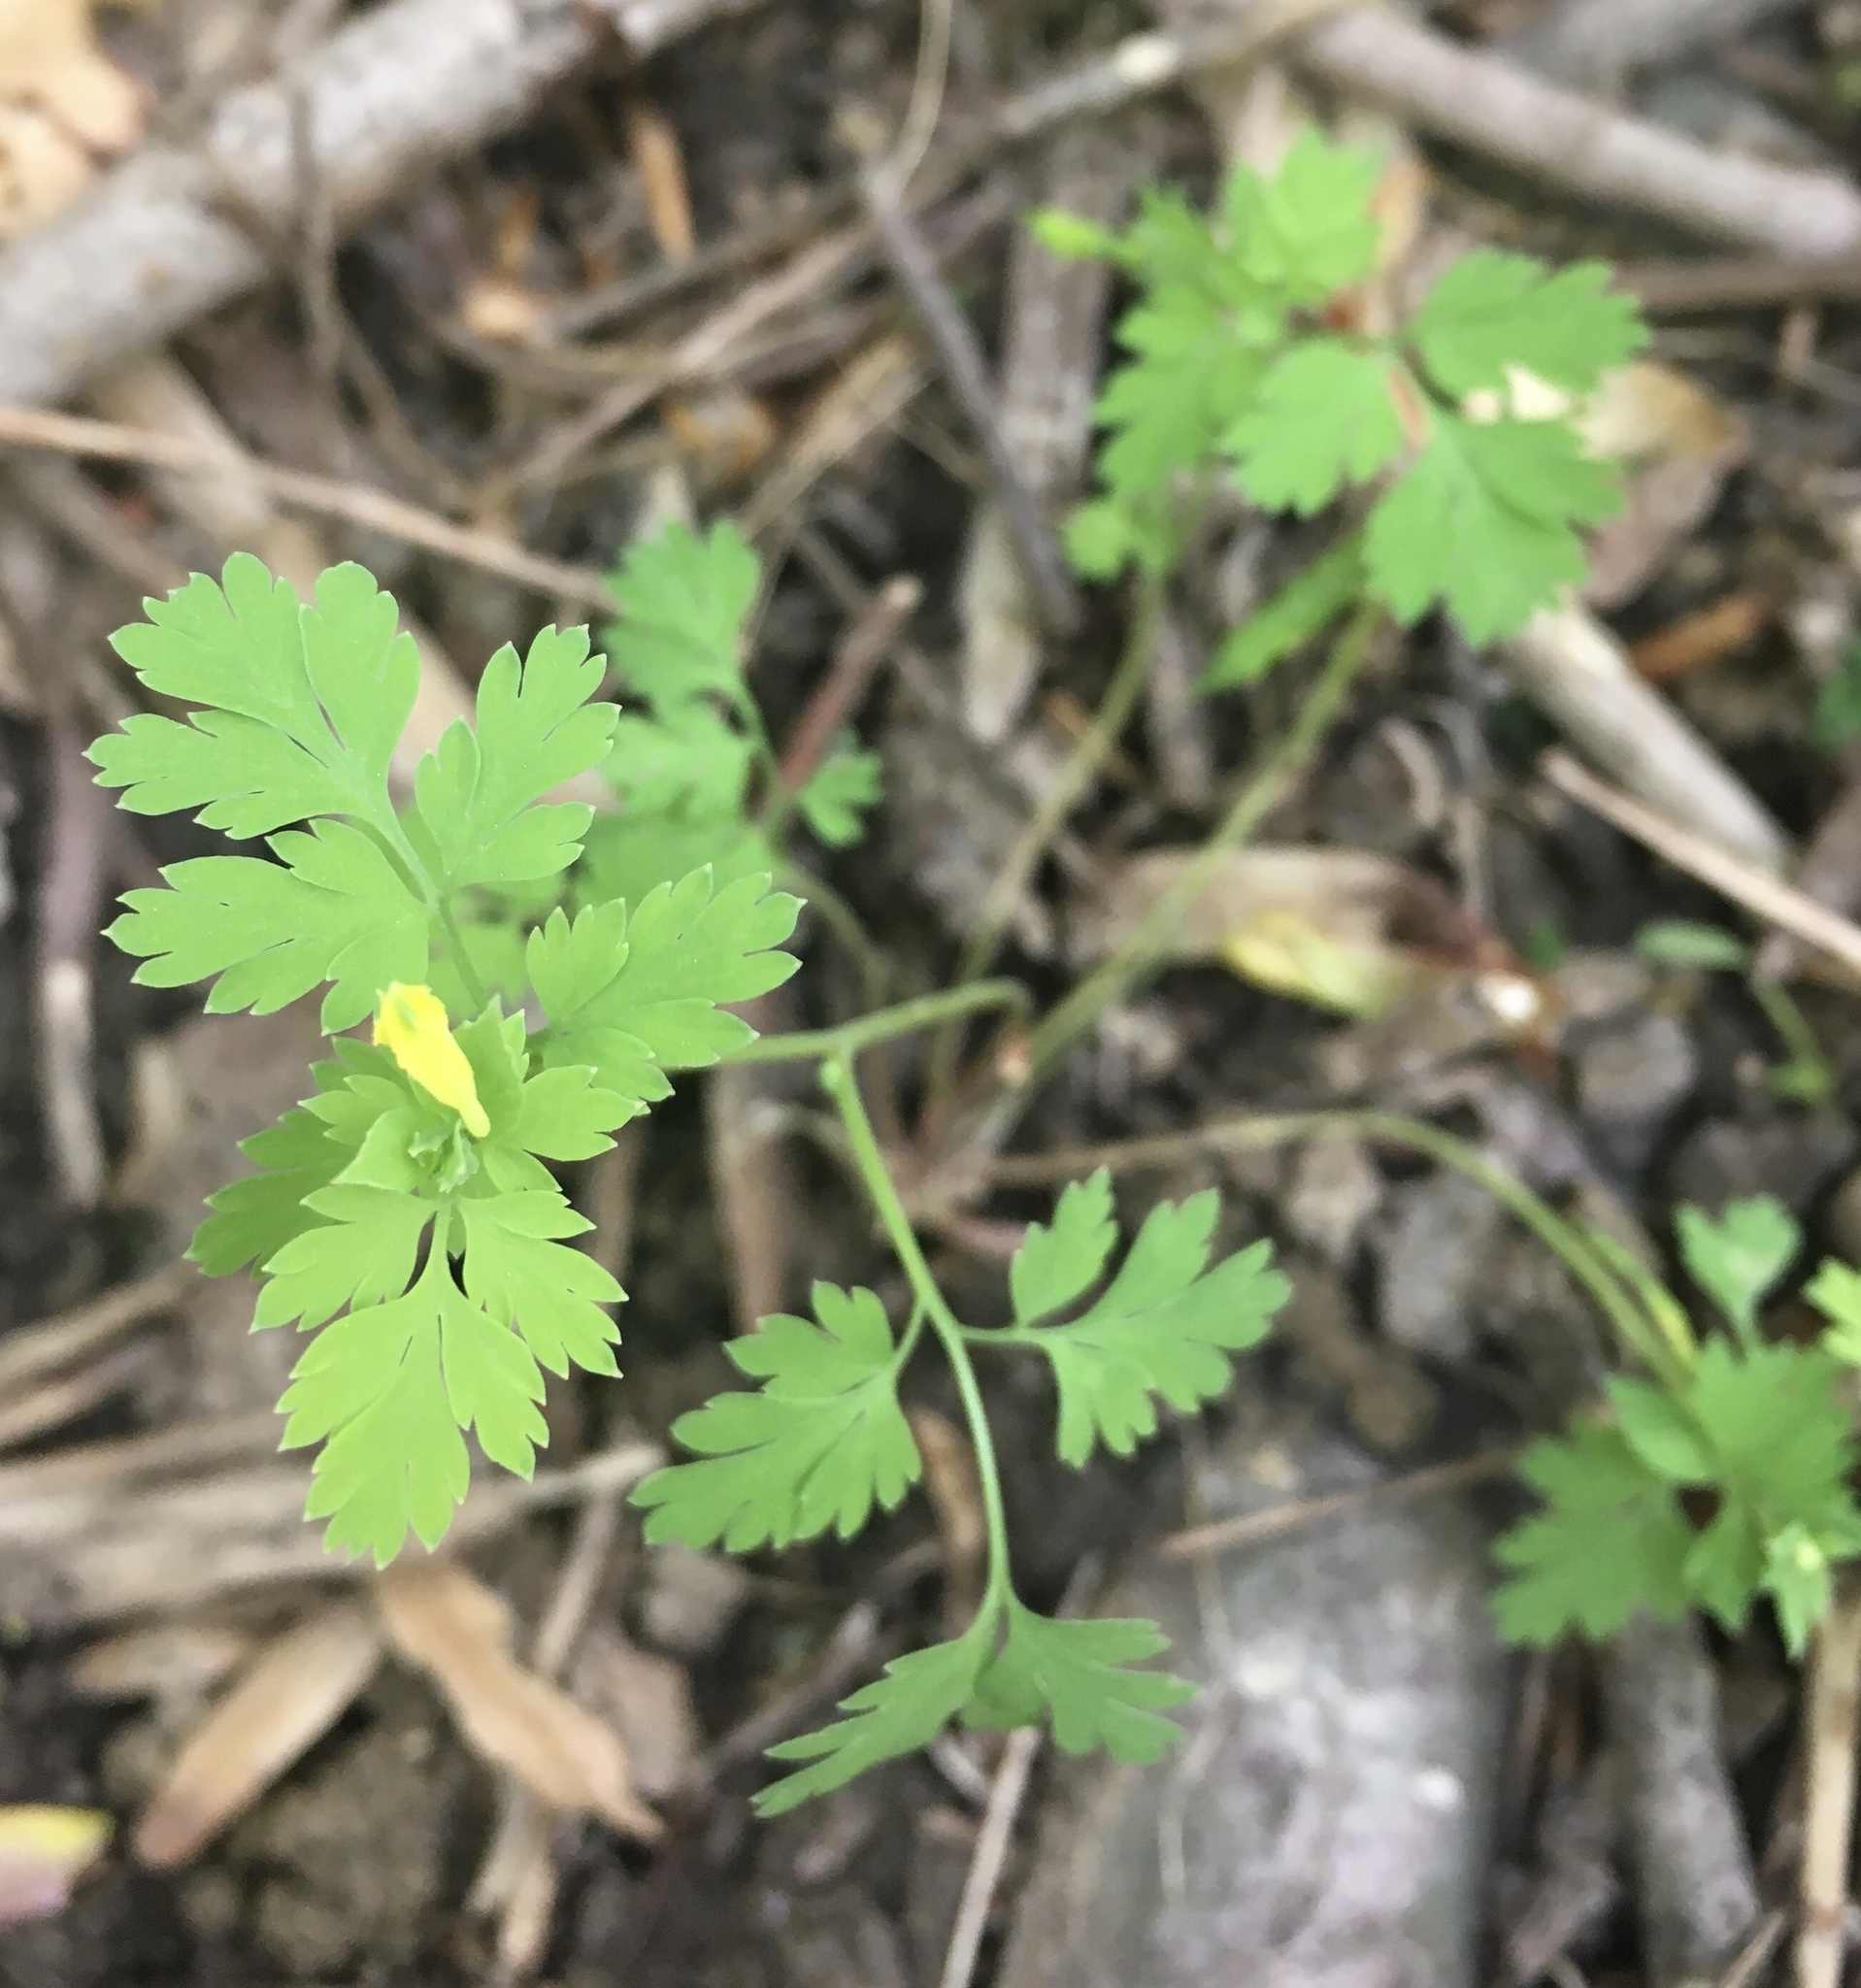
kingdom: Plantae
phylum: Tracheophyta
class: Magnoliopsida
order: Ranunculales
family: Papaveraceae
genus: Corydalis
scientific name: Corydalis flavula
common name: Yellow corydalis
